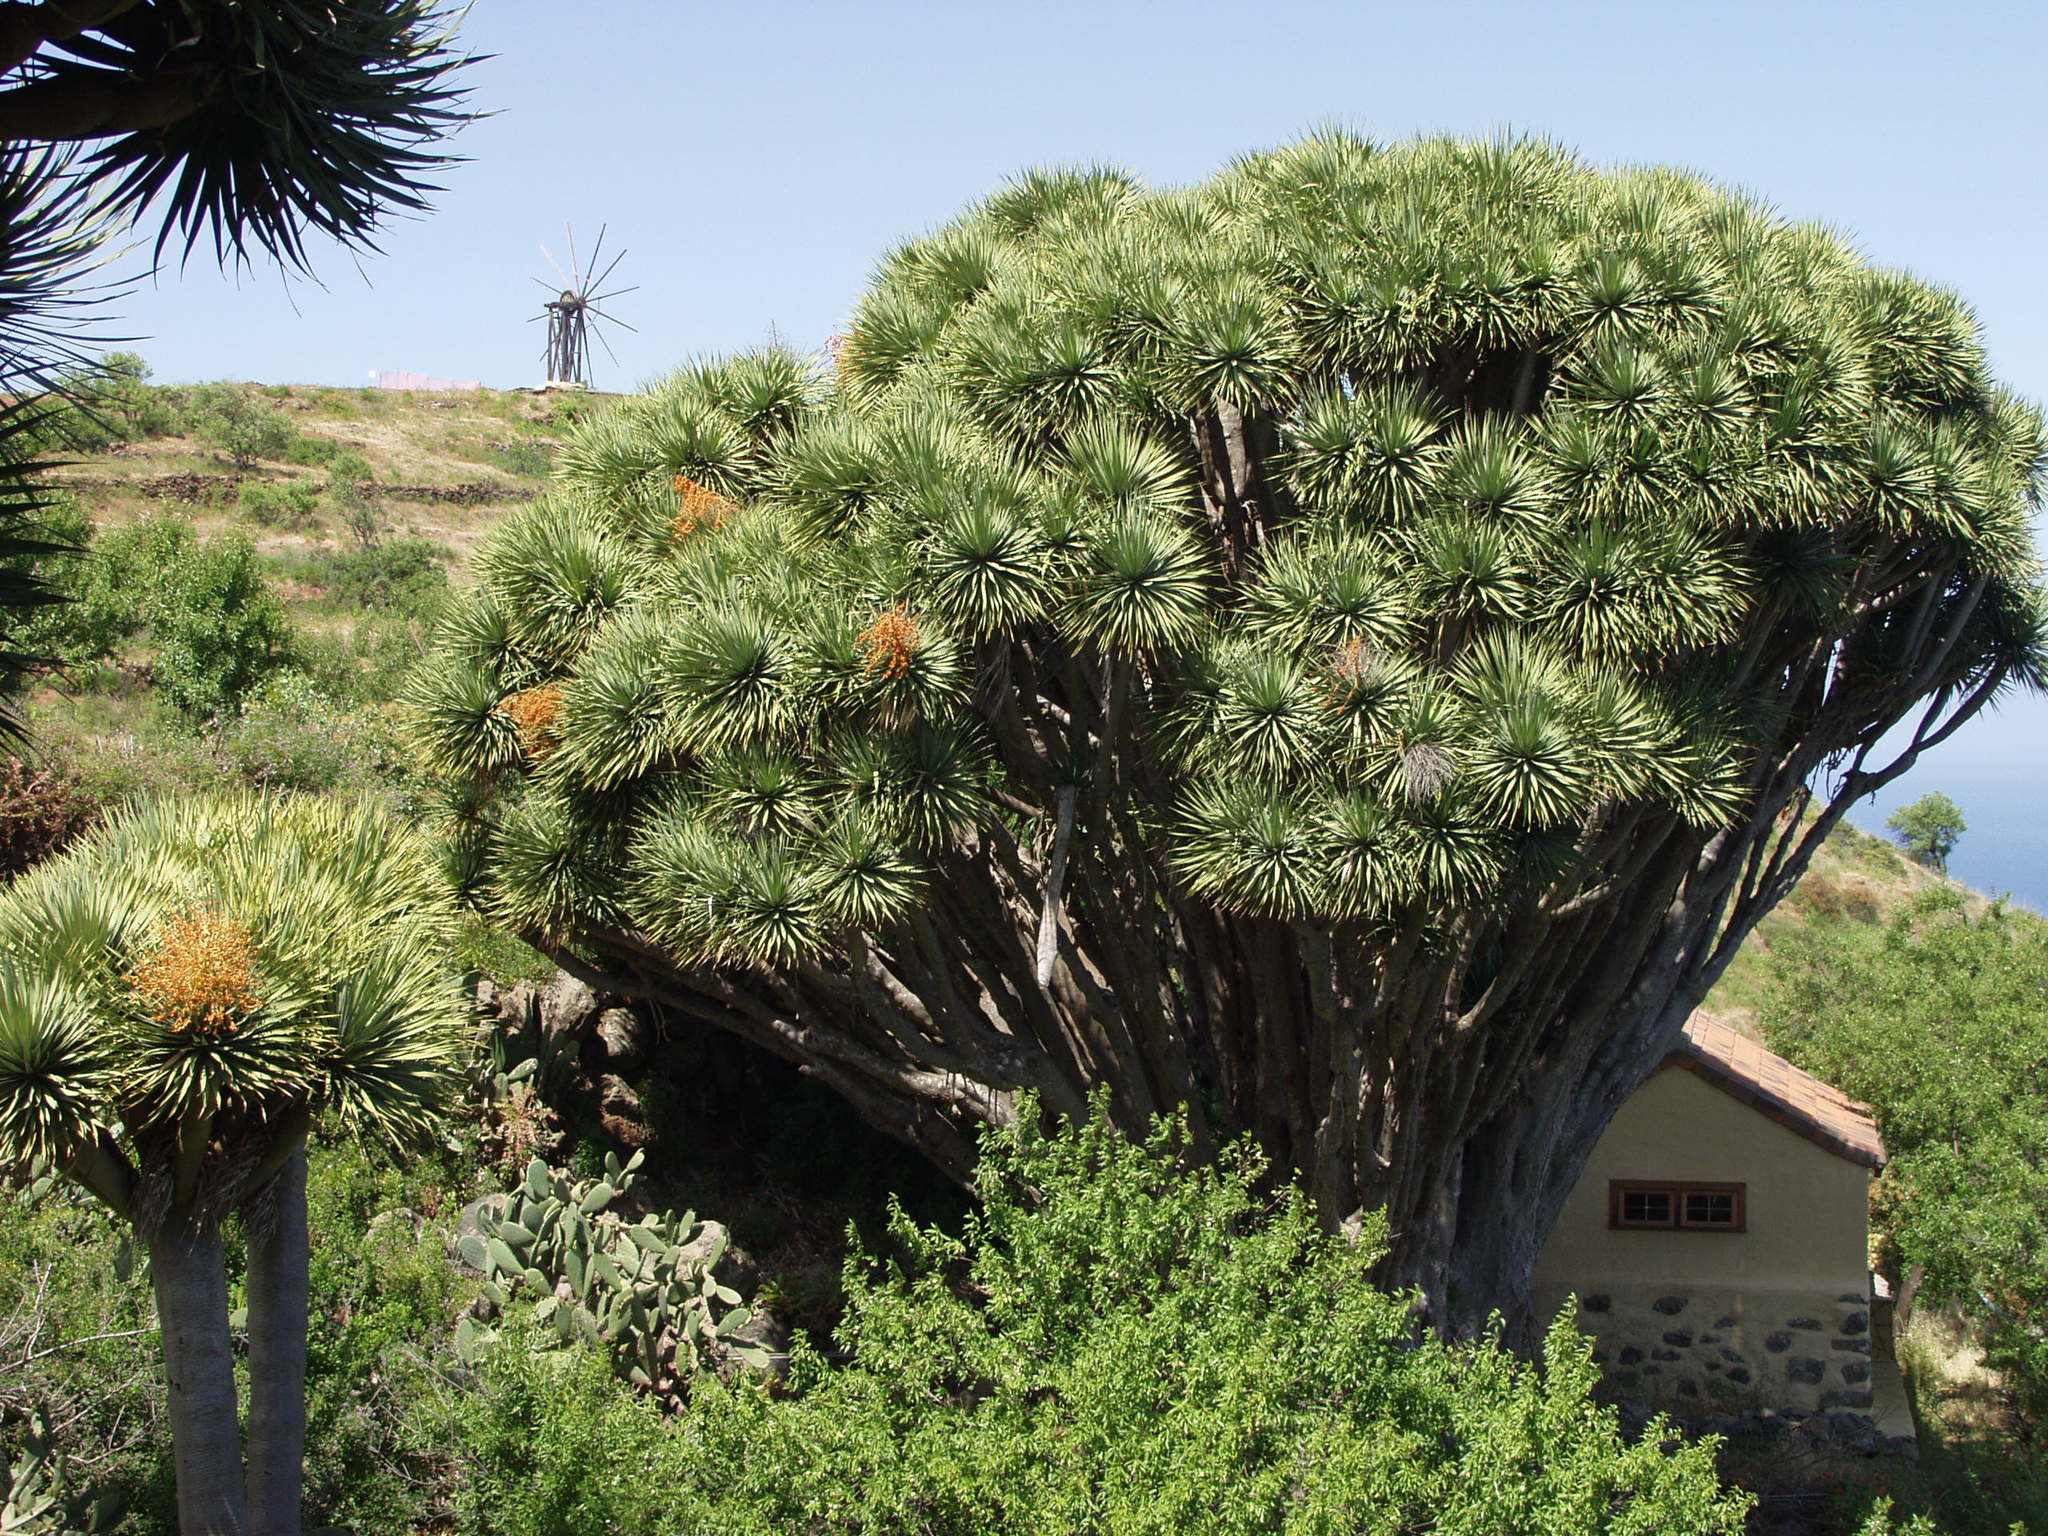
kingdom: Plantae
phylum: Tracheophyta
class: Liliopsida
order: Asparagales
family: Asparagaceae
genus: Dracaena
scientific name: Dracaena draco
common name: Canary island dragon tree
